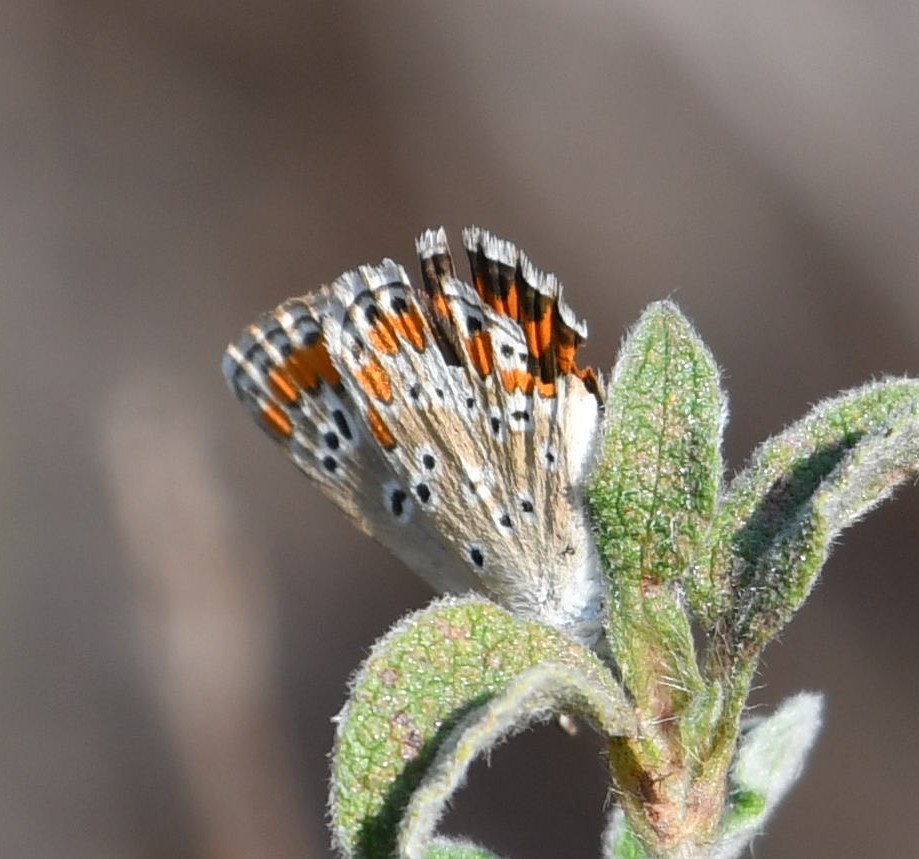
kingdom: Animalia
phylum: Arthropoda
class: Insecta
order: Lepidoptera
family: Lycaenidae
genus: Aricia
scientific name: Aricia agestis
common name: Brown argus
